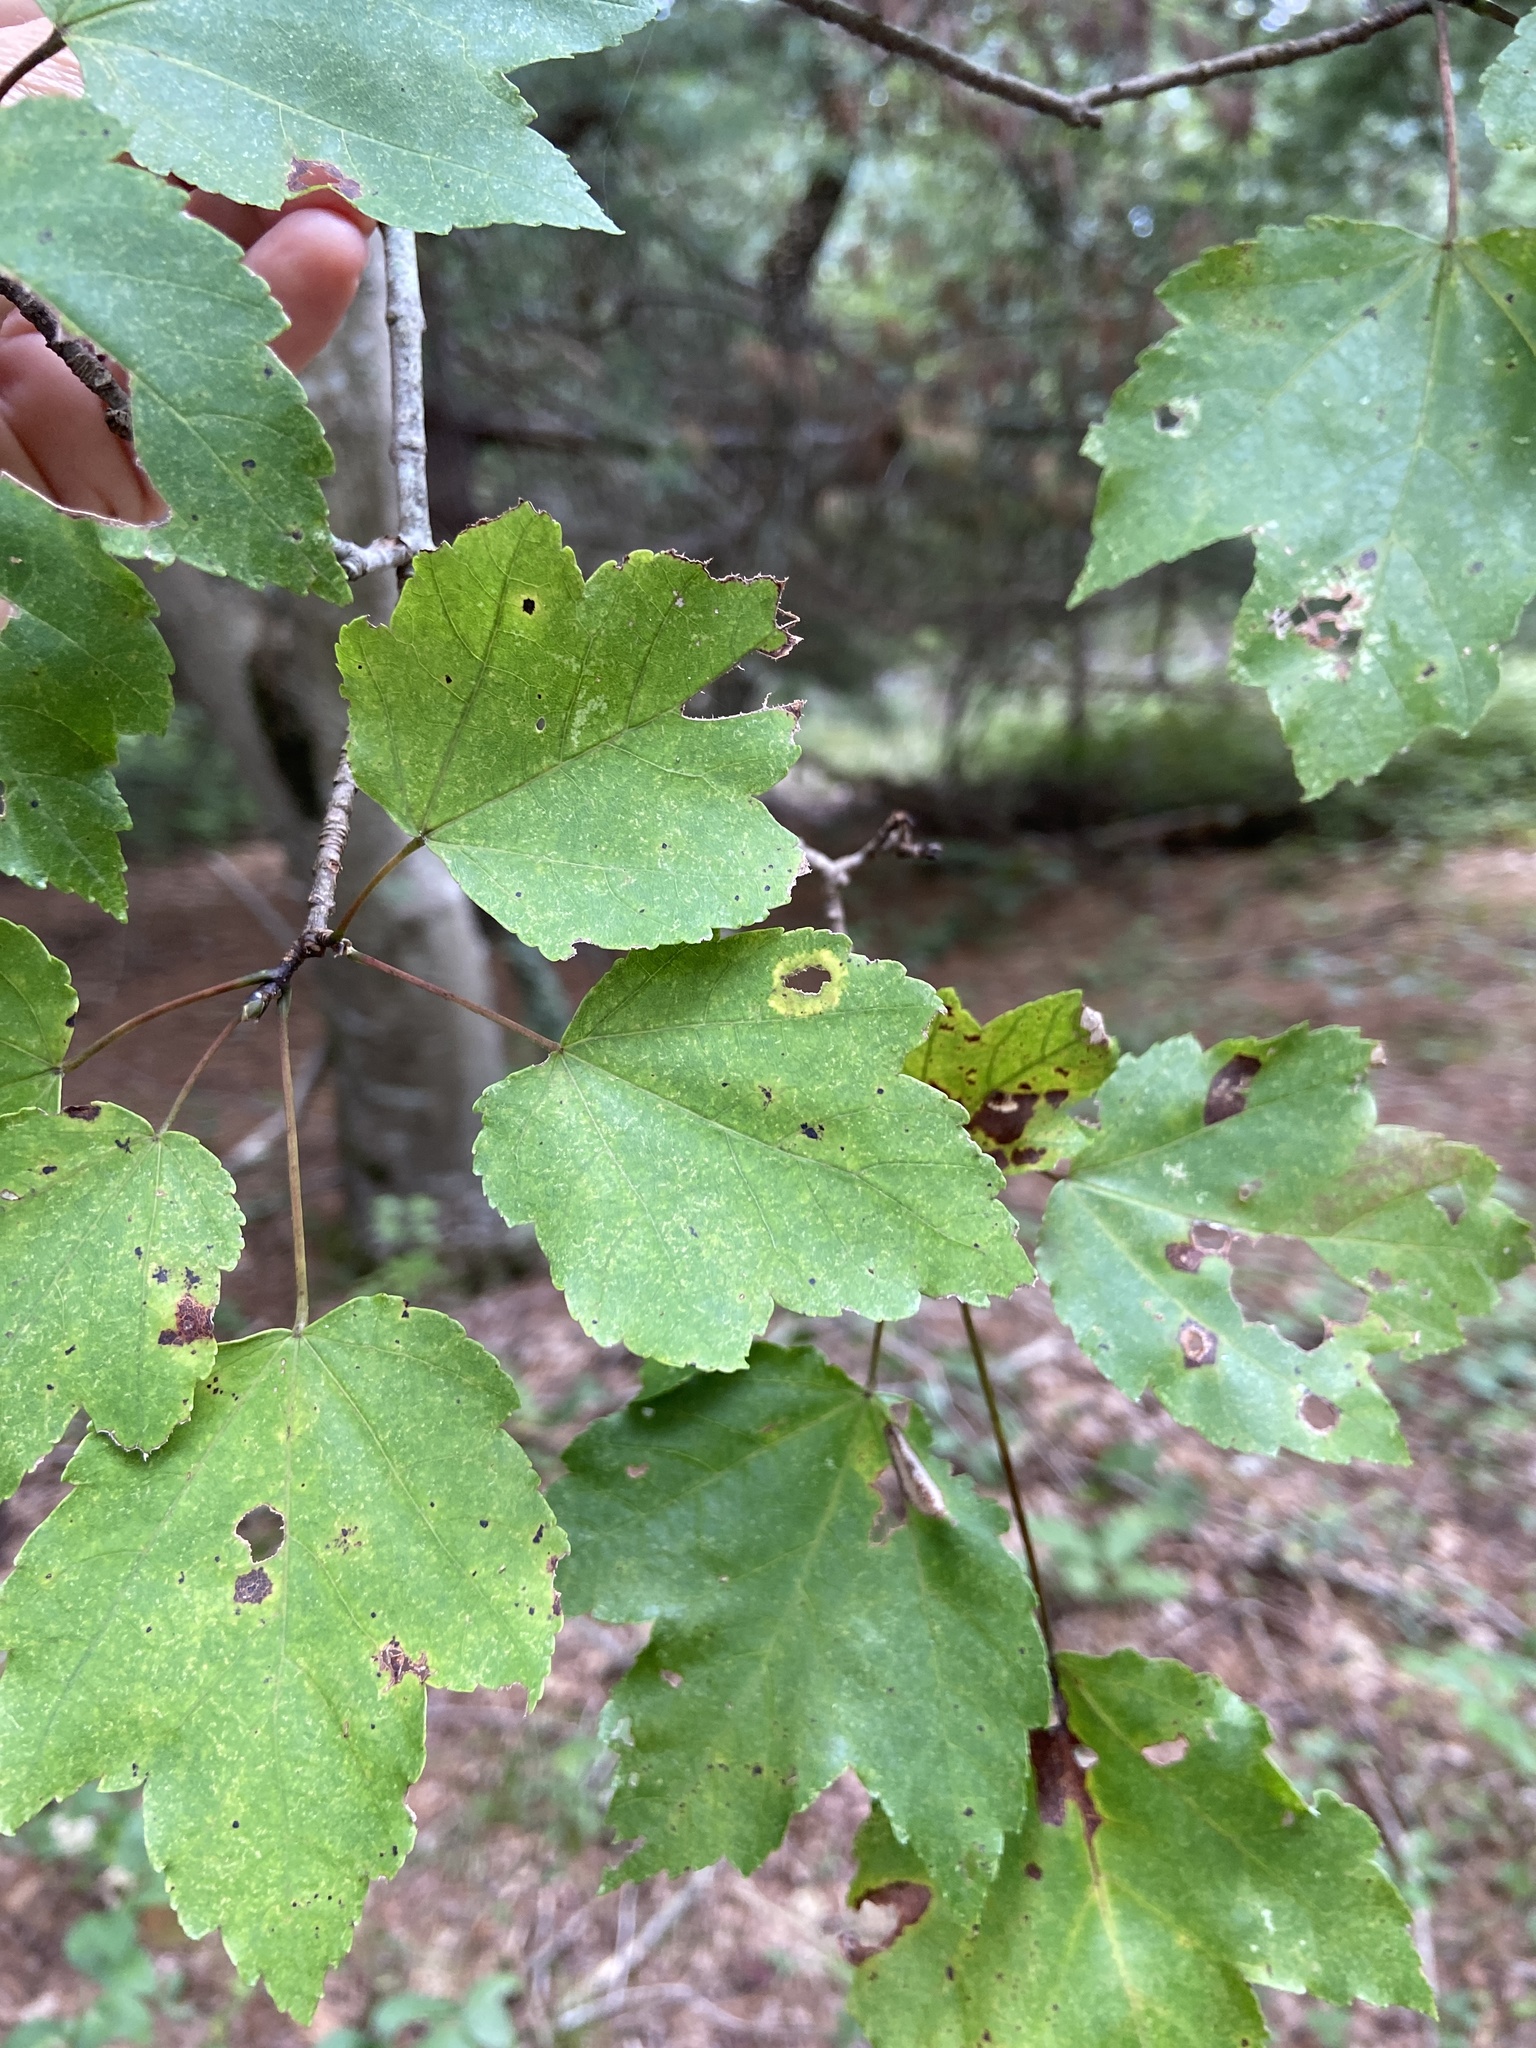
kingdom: Plantae
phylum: Tracheophyta
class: Magnoliopsida
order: Sapindales
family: Sapindaceae
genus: Acer
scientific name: Acer rubrum
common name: Red maple
